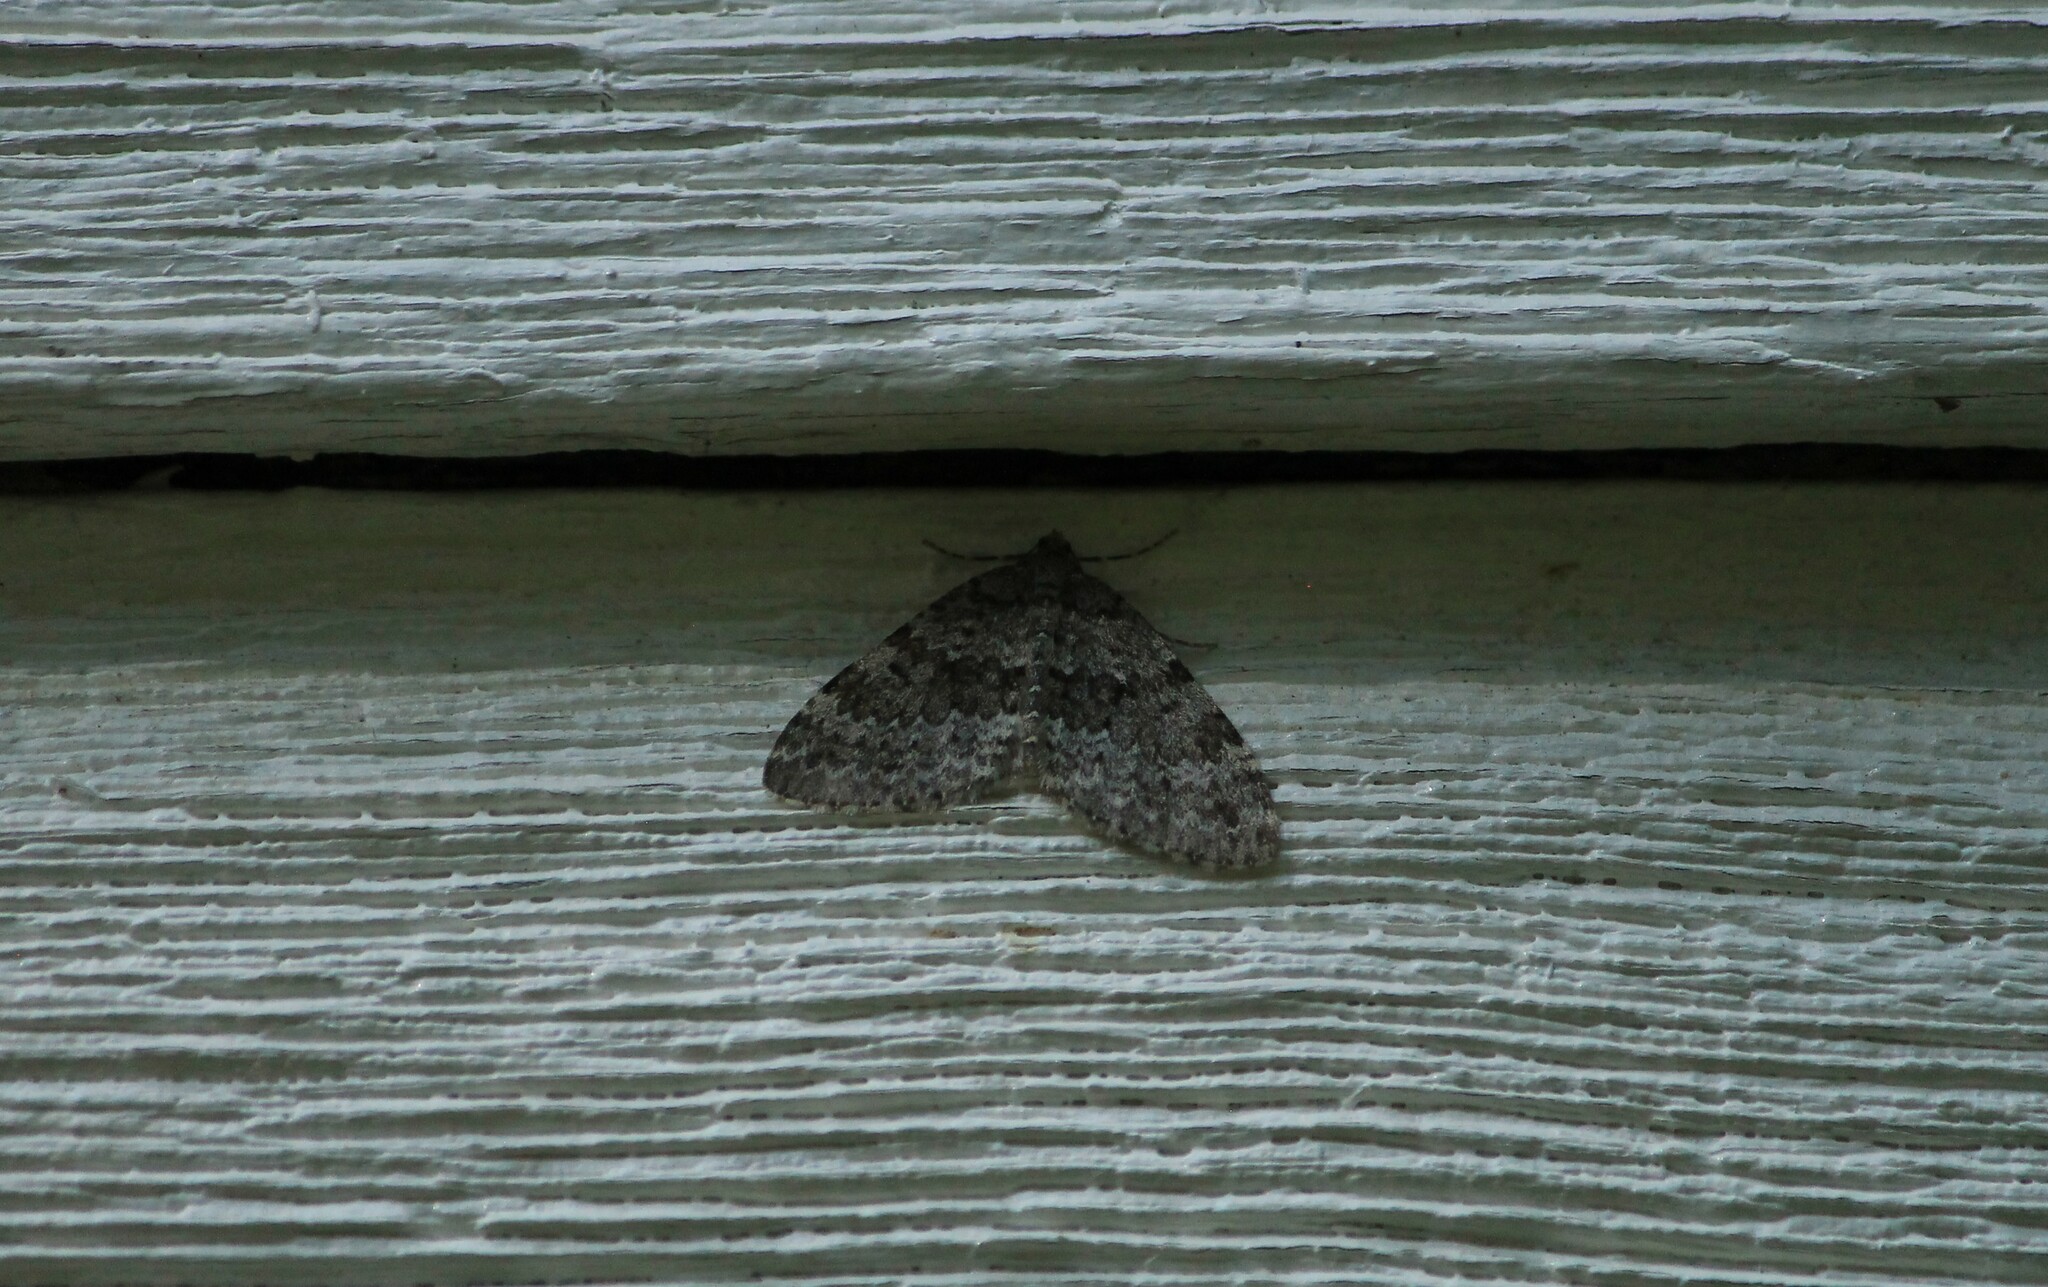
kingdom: Animalia
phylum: Arthropoda
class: Insecta
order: Lepidoptera
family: Geometridae
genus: Entephria
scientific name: Entephria caesiata
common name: Grey mountain moth
